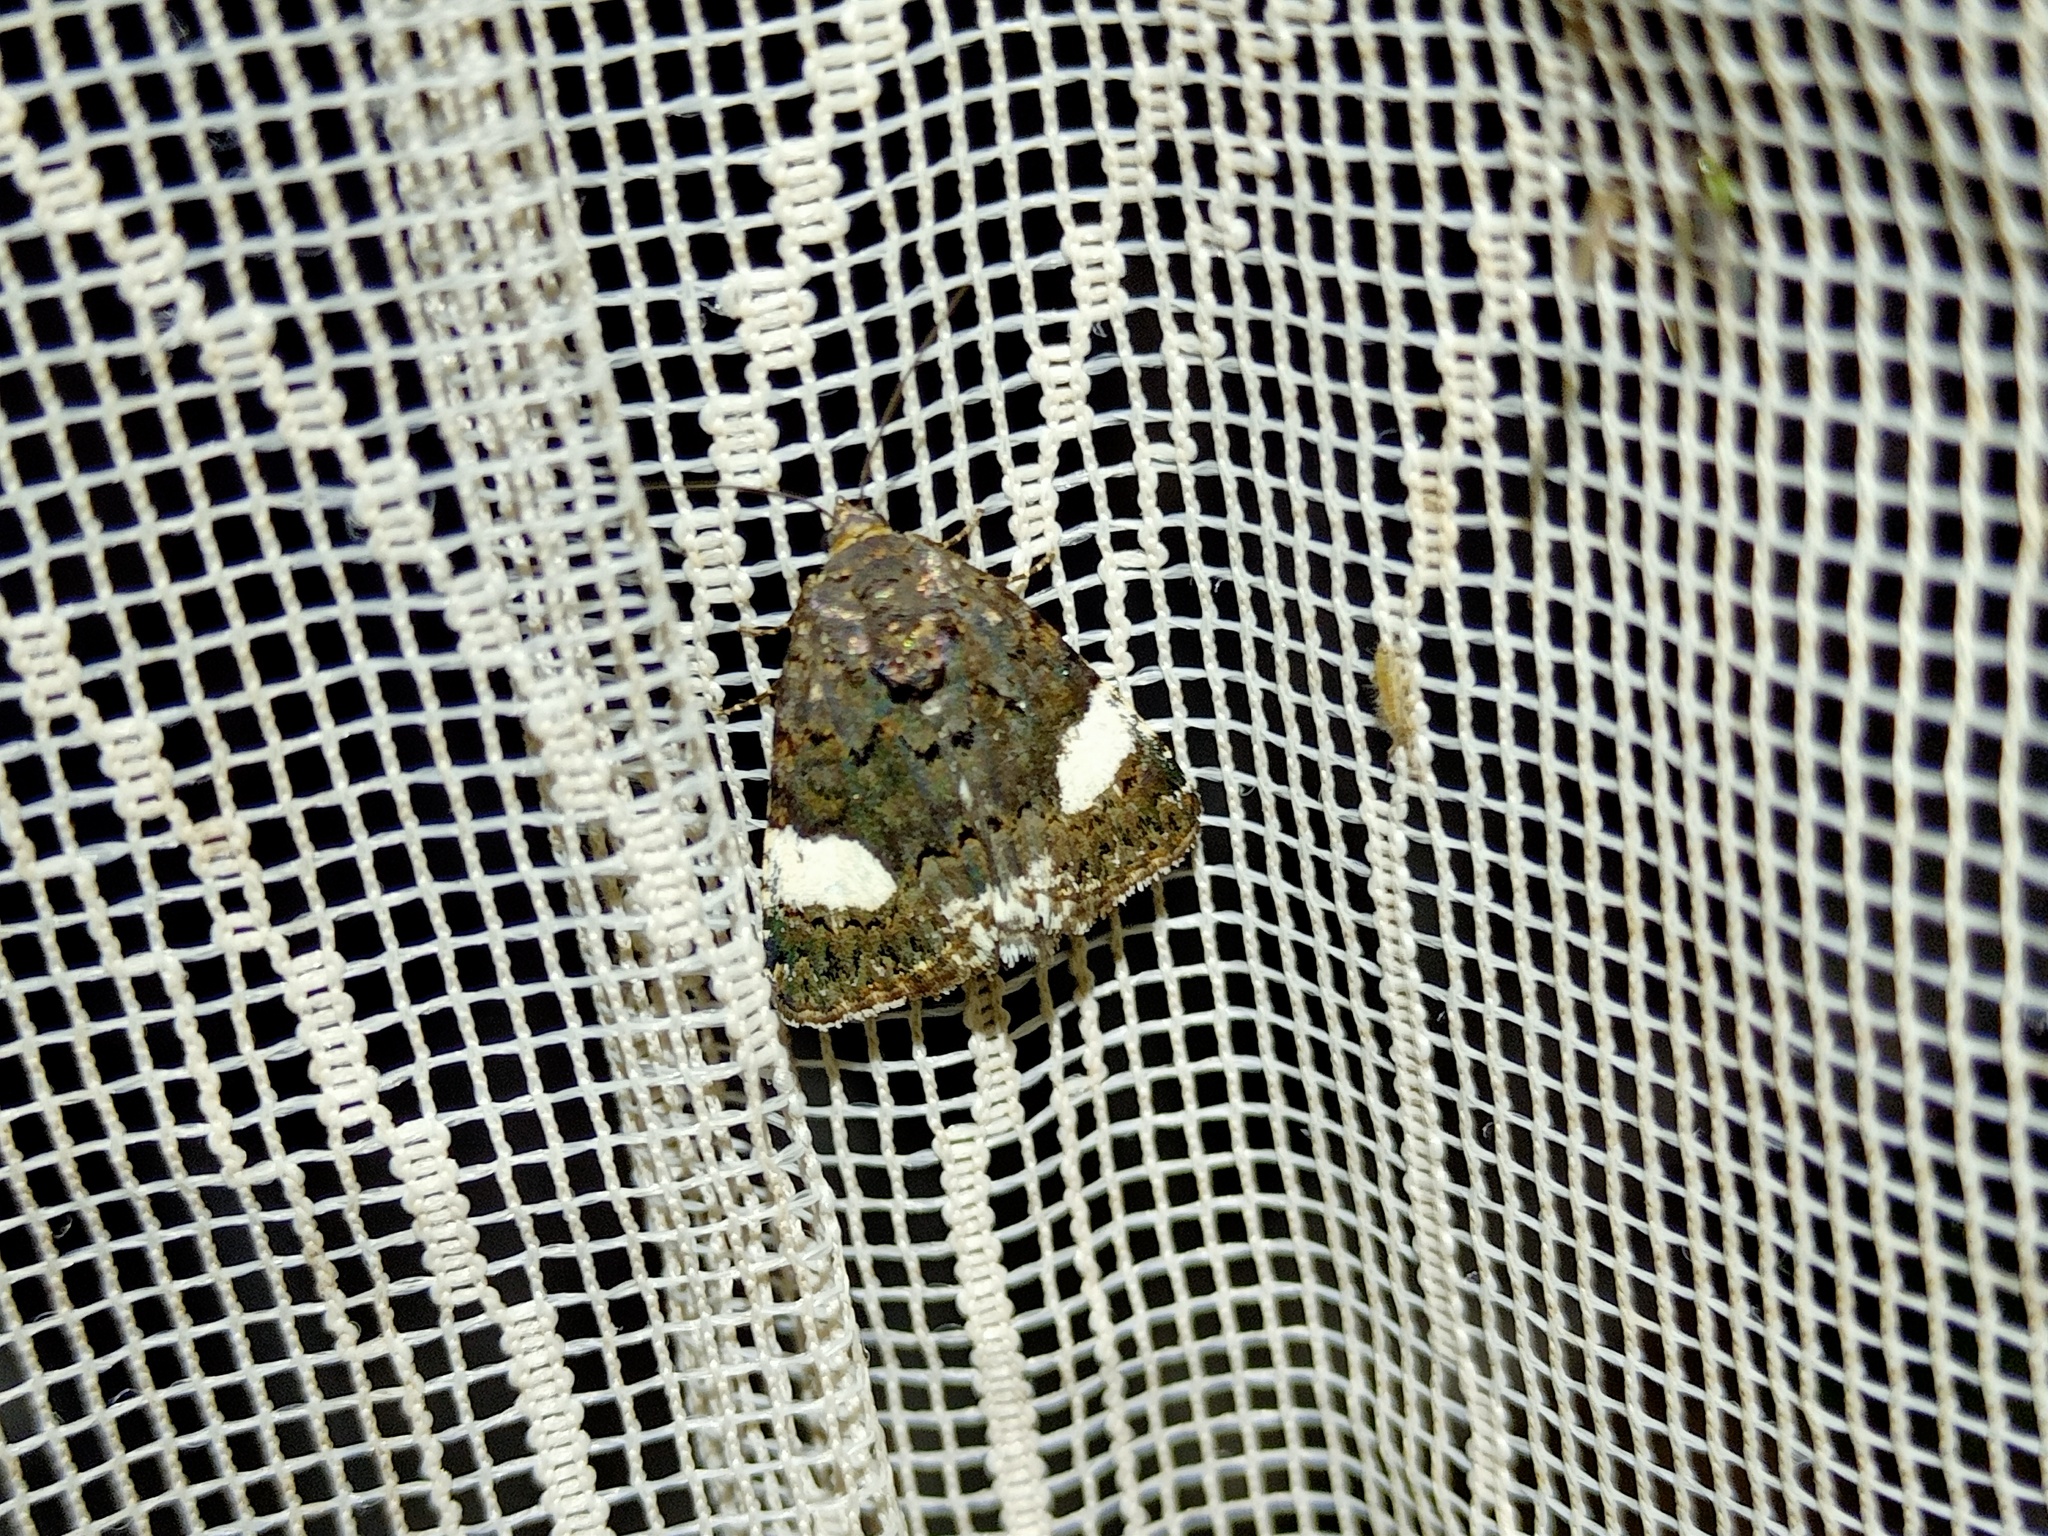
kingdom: Animalia
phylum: Arthropoda
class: Insecta
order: Lepidoptera
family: Erebidae
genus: Tyta
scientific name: Tyta luctuosa
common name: Four-spotted
